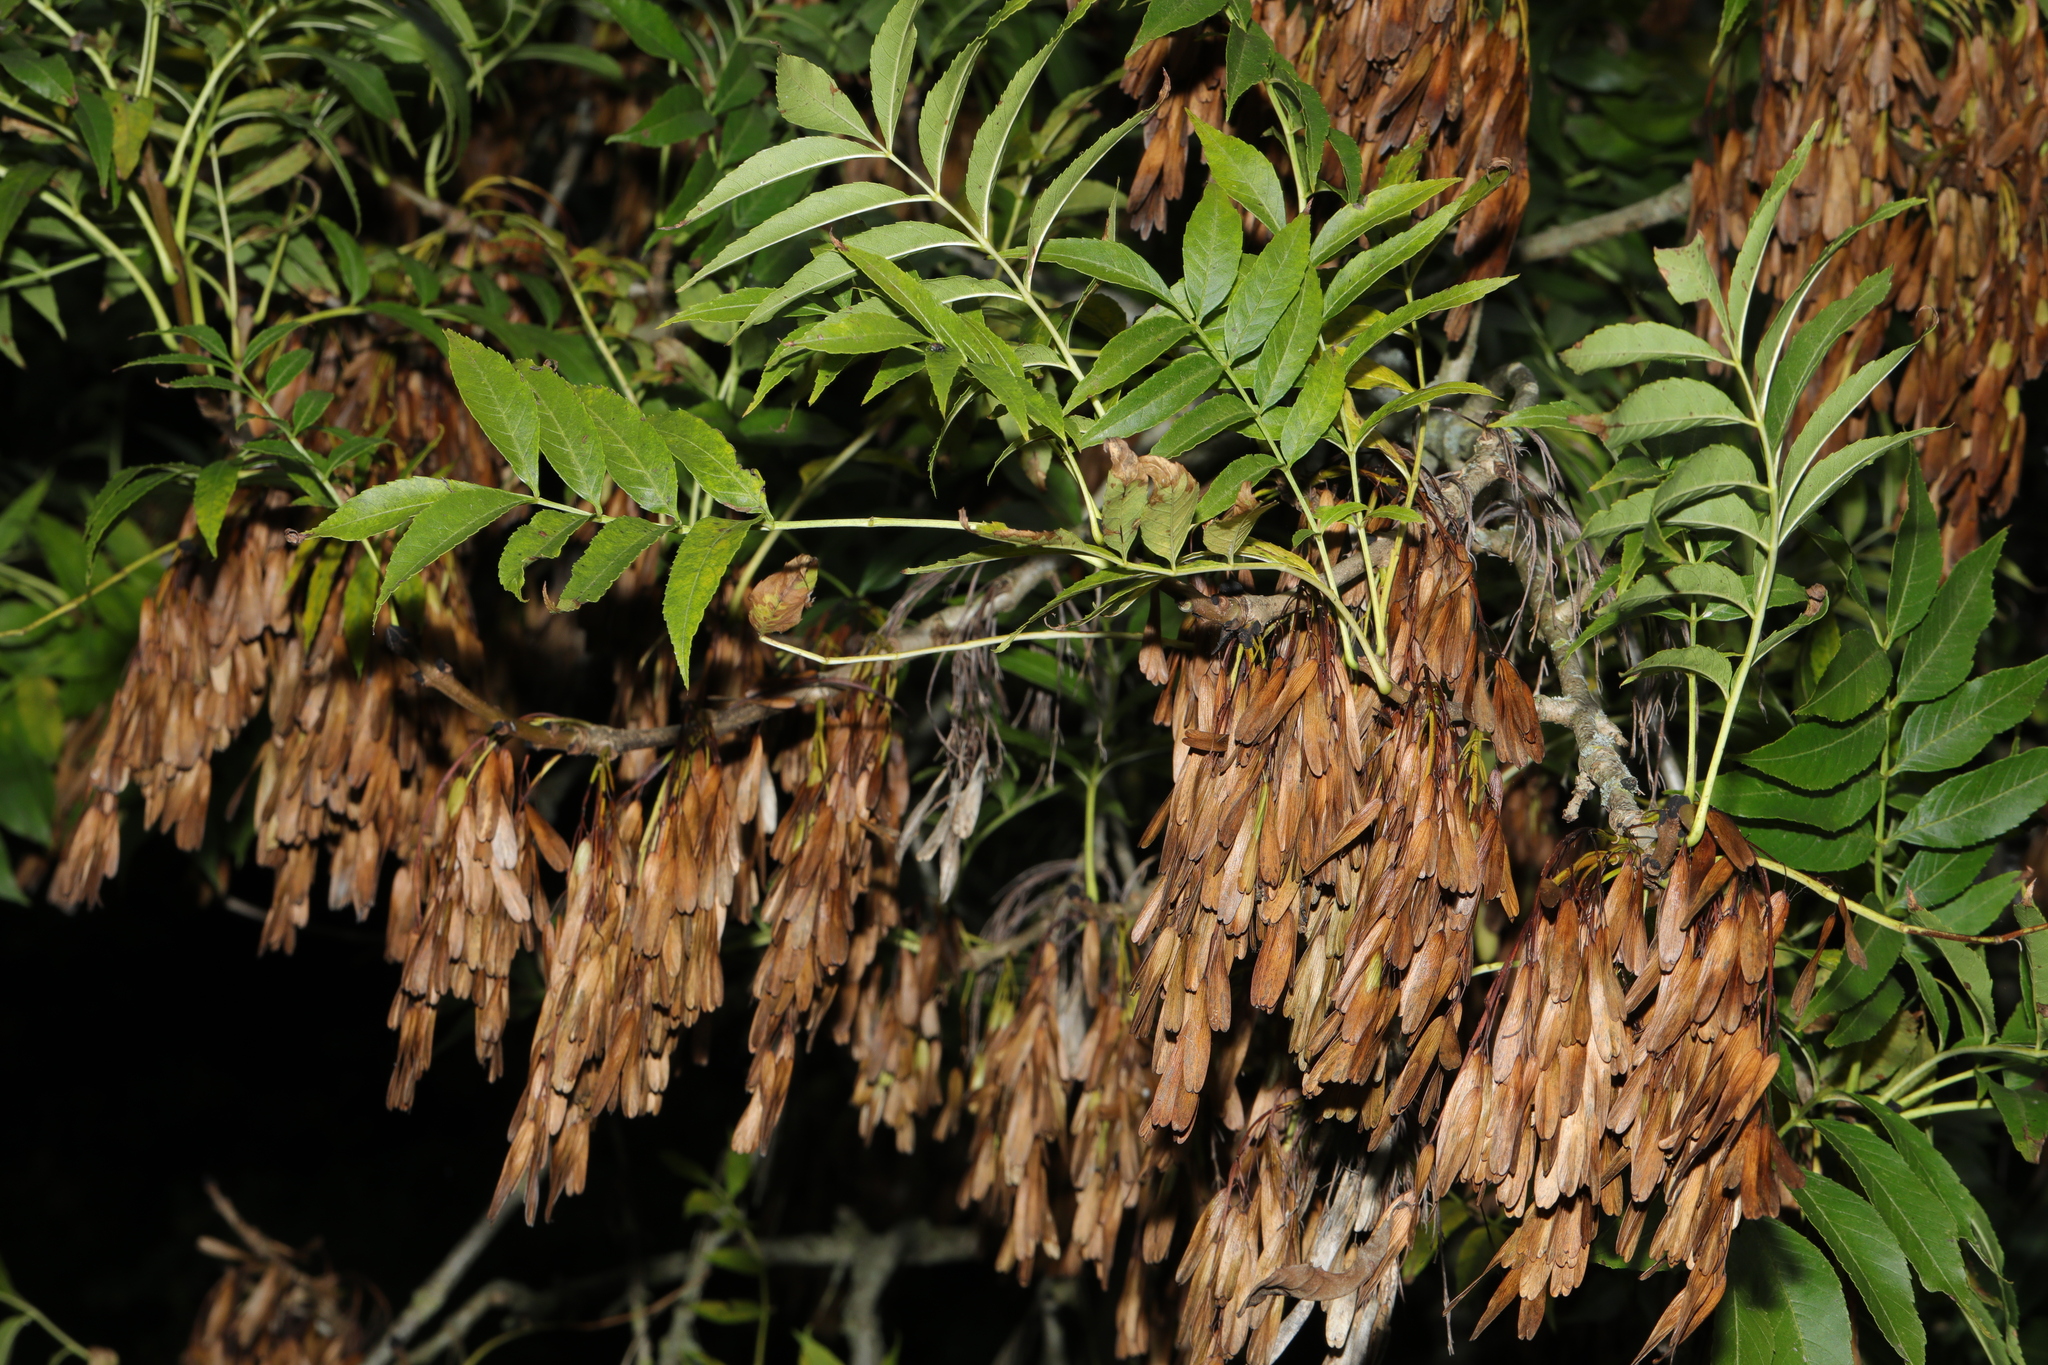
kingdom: Plantae
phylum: Tracheophyta
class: Magnoliopsida
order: Lamiales
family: Oleaceae
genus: Fraxinus
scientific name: Fraxinus excelsior
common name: European ash
